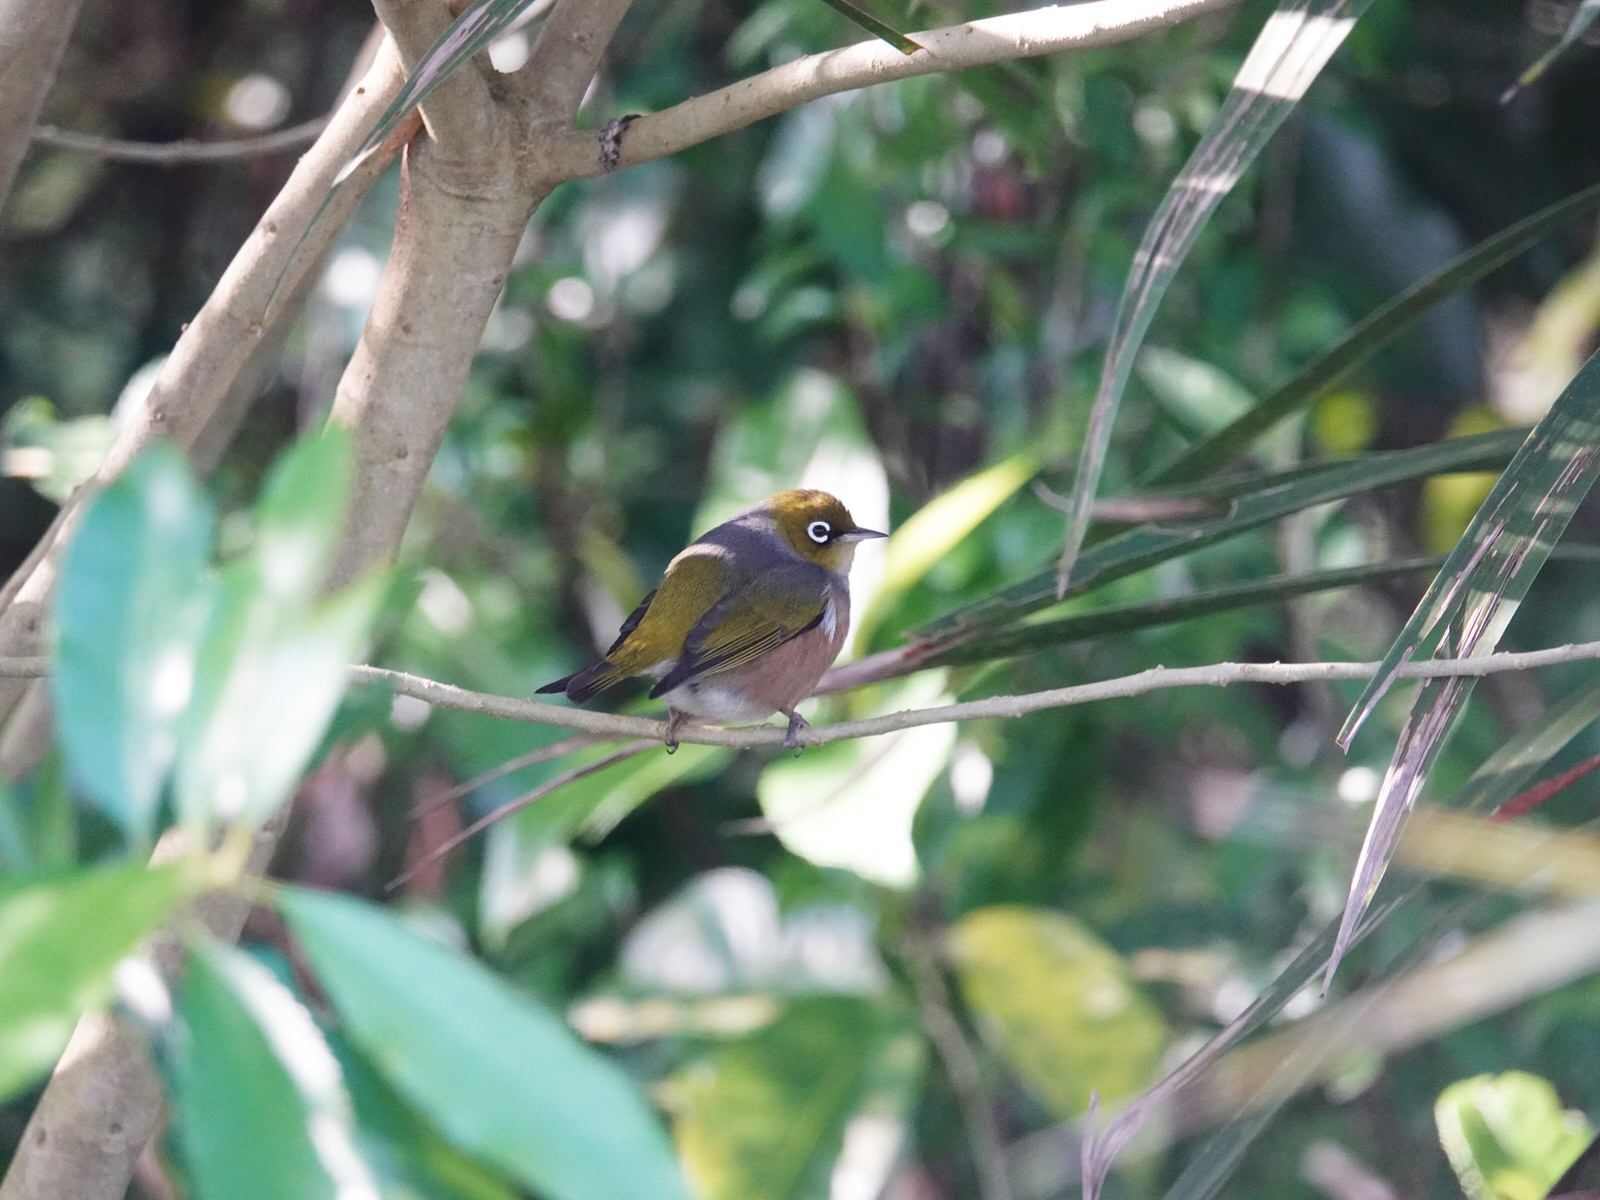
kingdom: Animalia
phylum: Chordata
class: Aves
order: Passeriformes
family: Zosteropidae
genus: Zosterops
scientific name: Zosterops lateralis
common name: Silvereye
